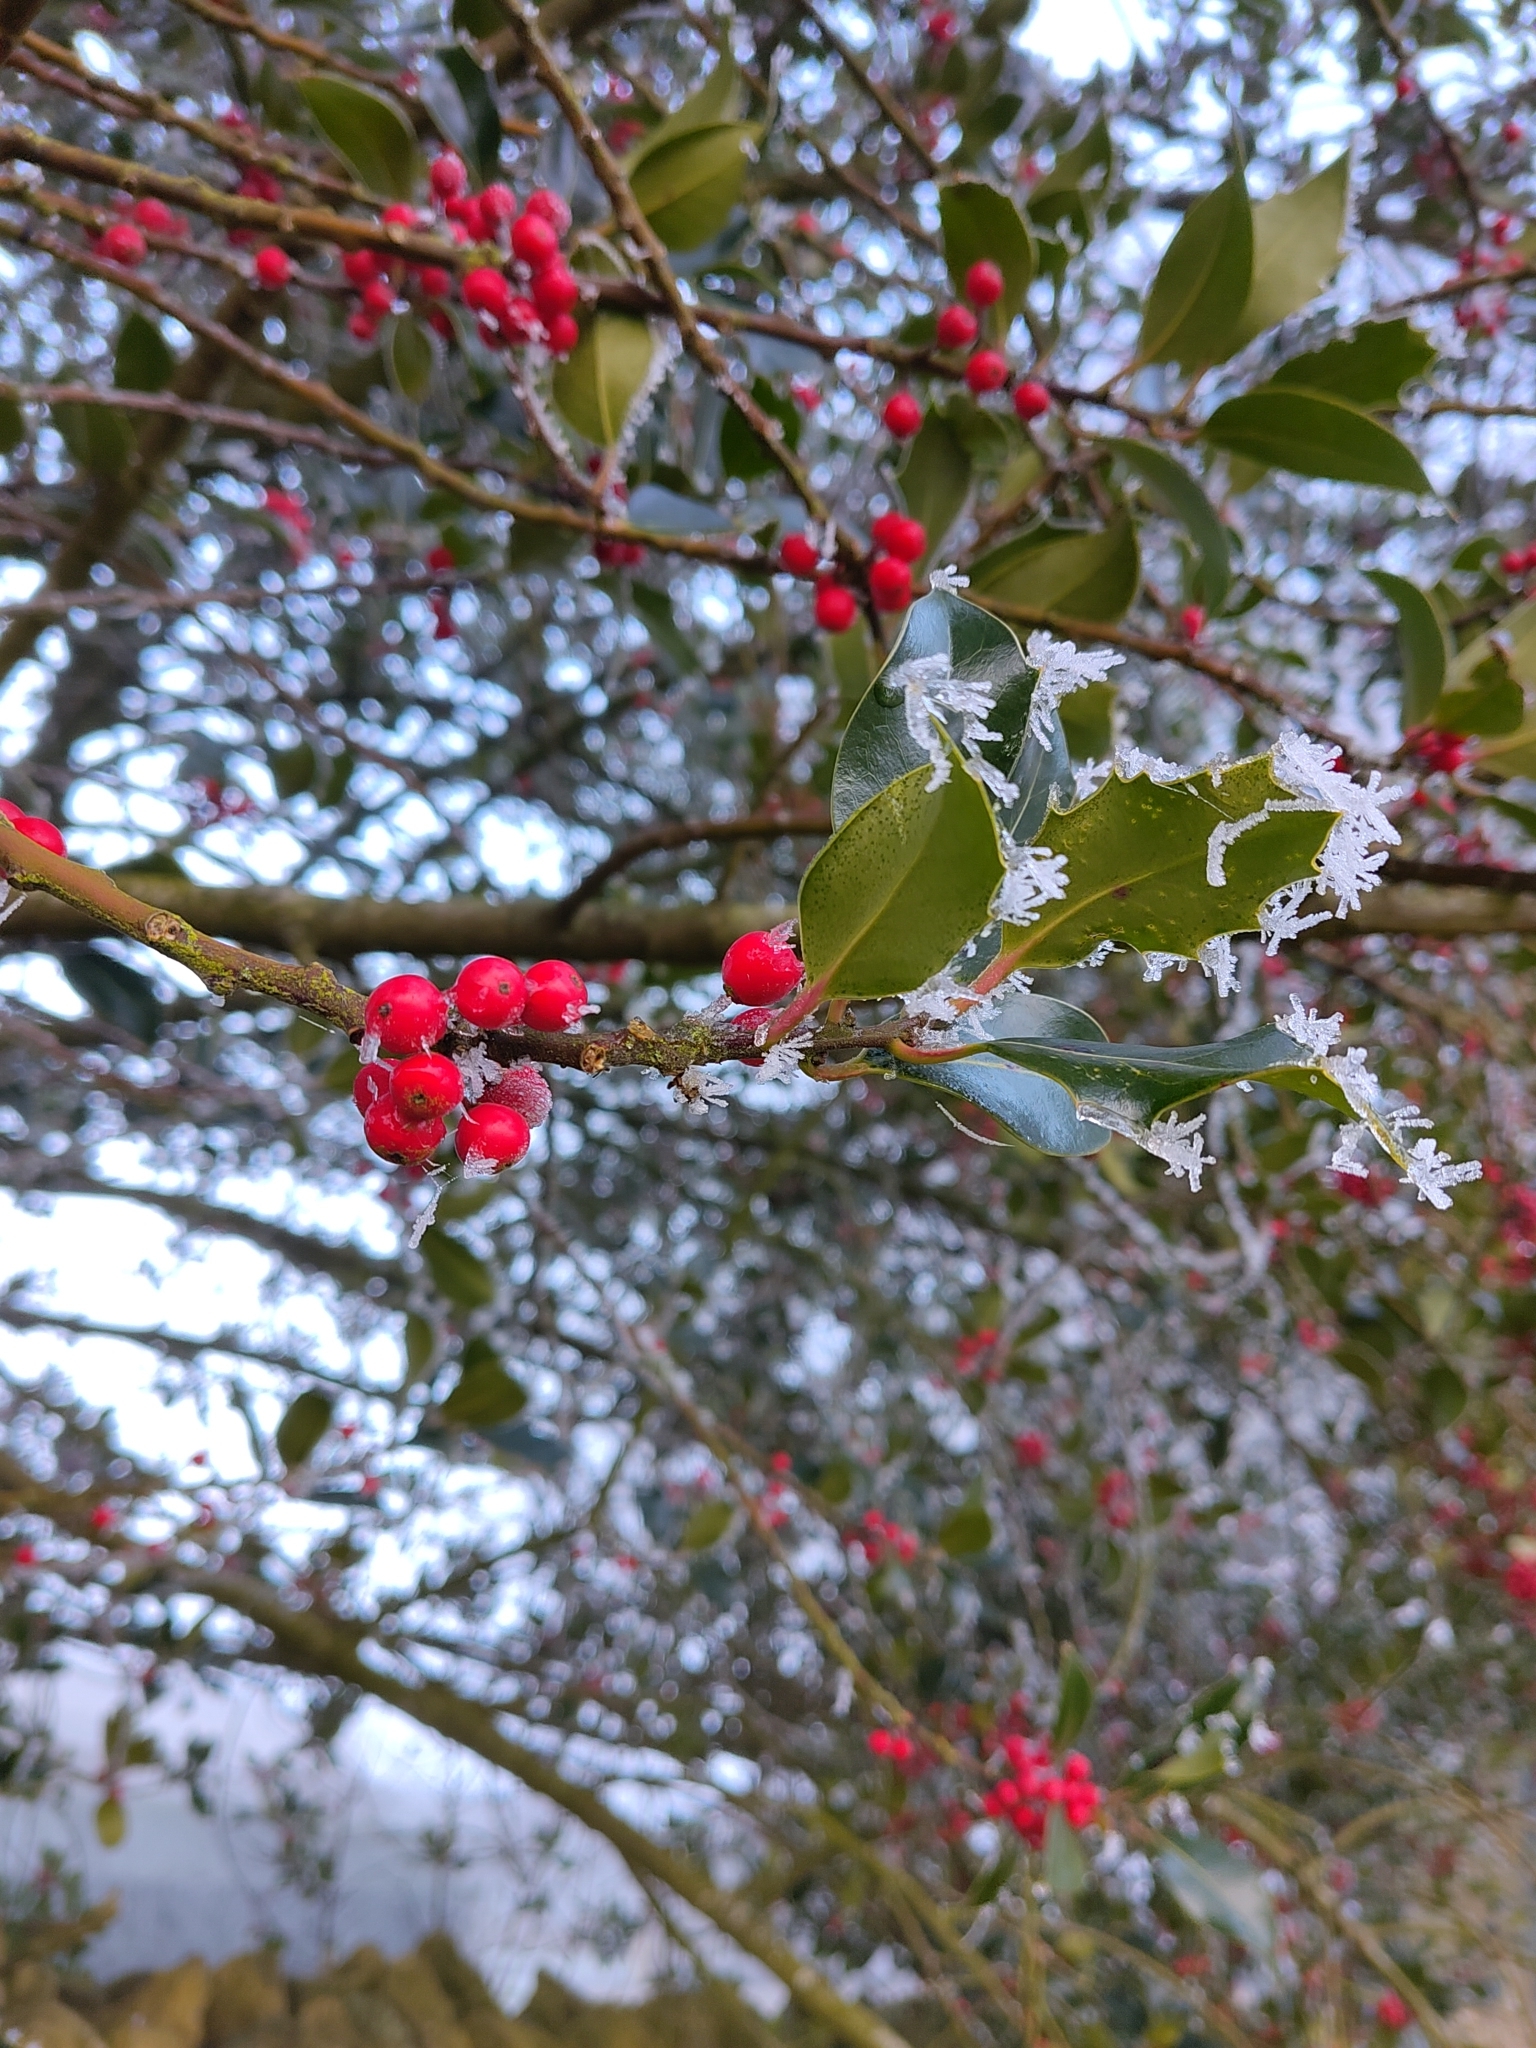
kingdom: Plantae
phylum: Tracheophyta
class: Magnoliopsida
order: Aquifoliales
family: Aquifoliaceae
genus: Ilex
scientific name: Ilex aquifolium
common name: English holly
